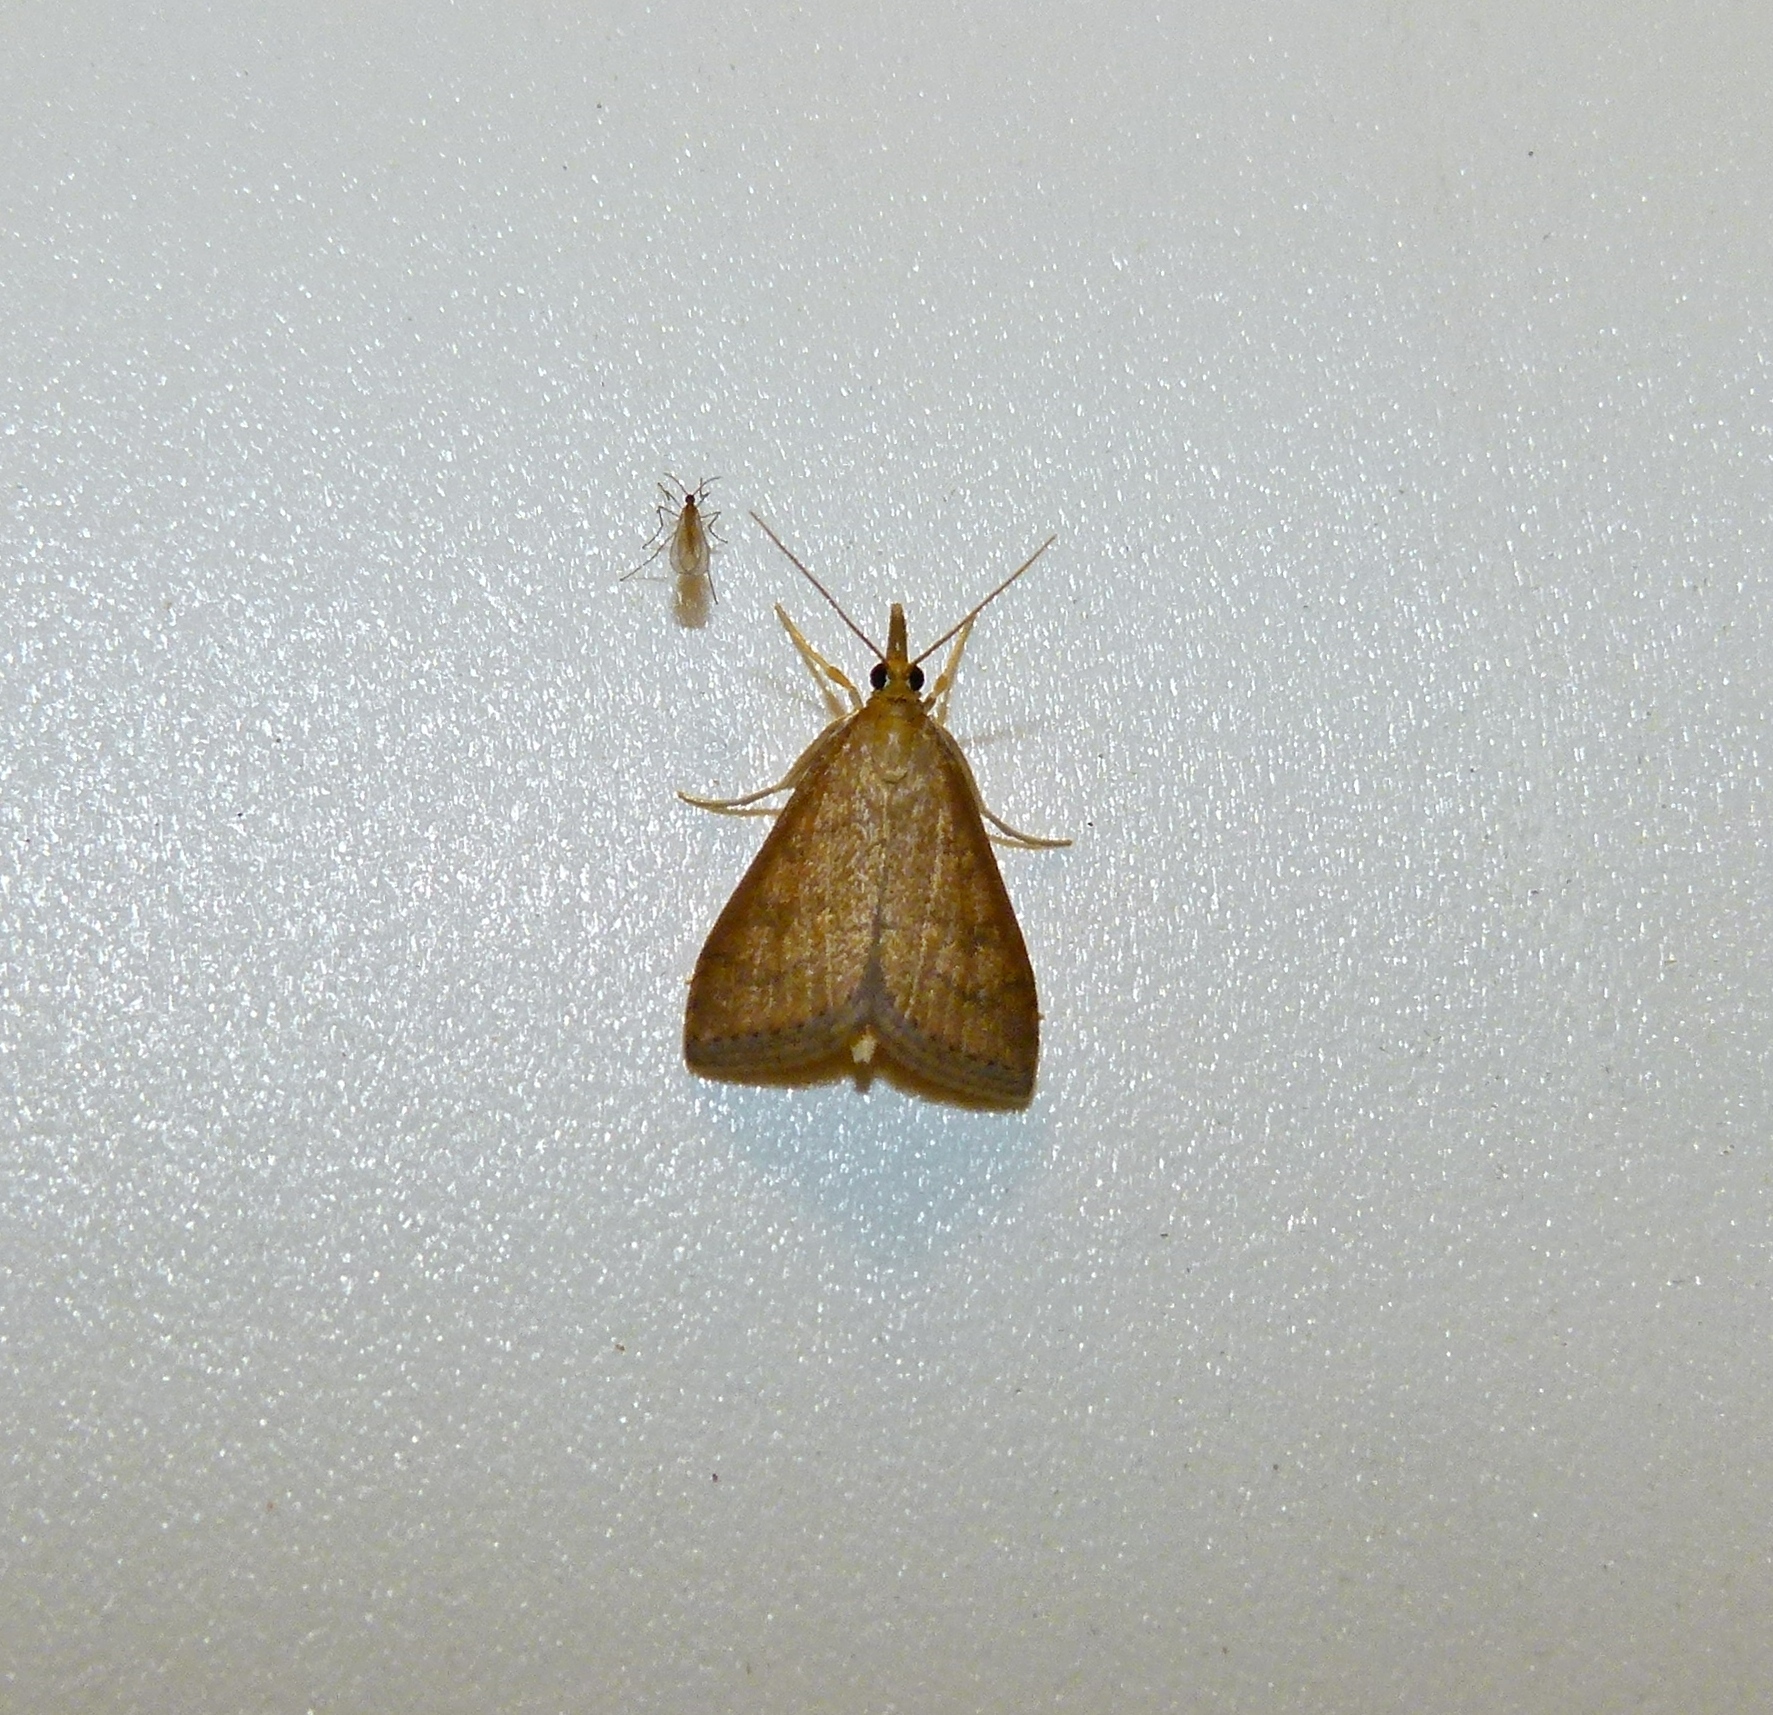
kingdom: Animalia
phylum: Arthropoda
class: Insecta
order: Lepidoptera
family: Crambidae
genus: Udea
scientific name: Udea rubigalis
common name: Celery leaftier moth
